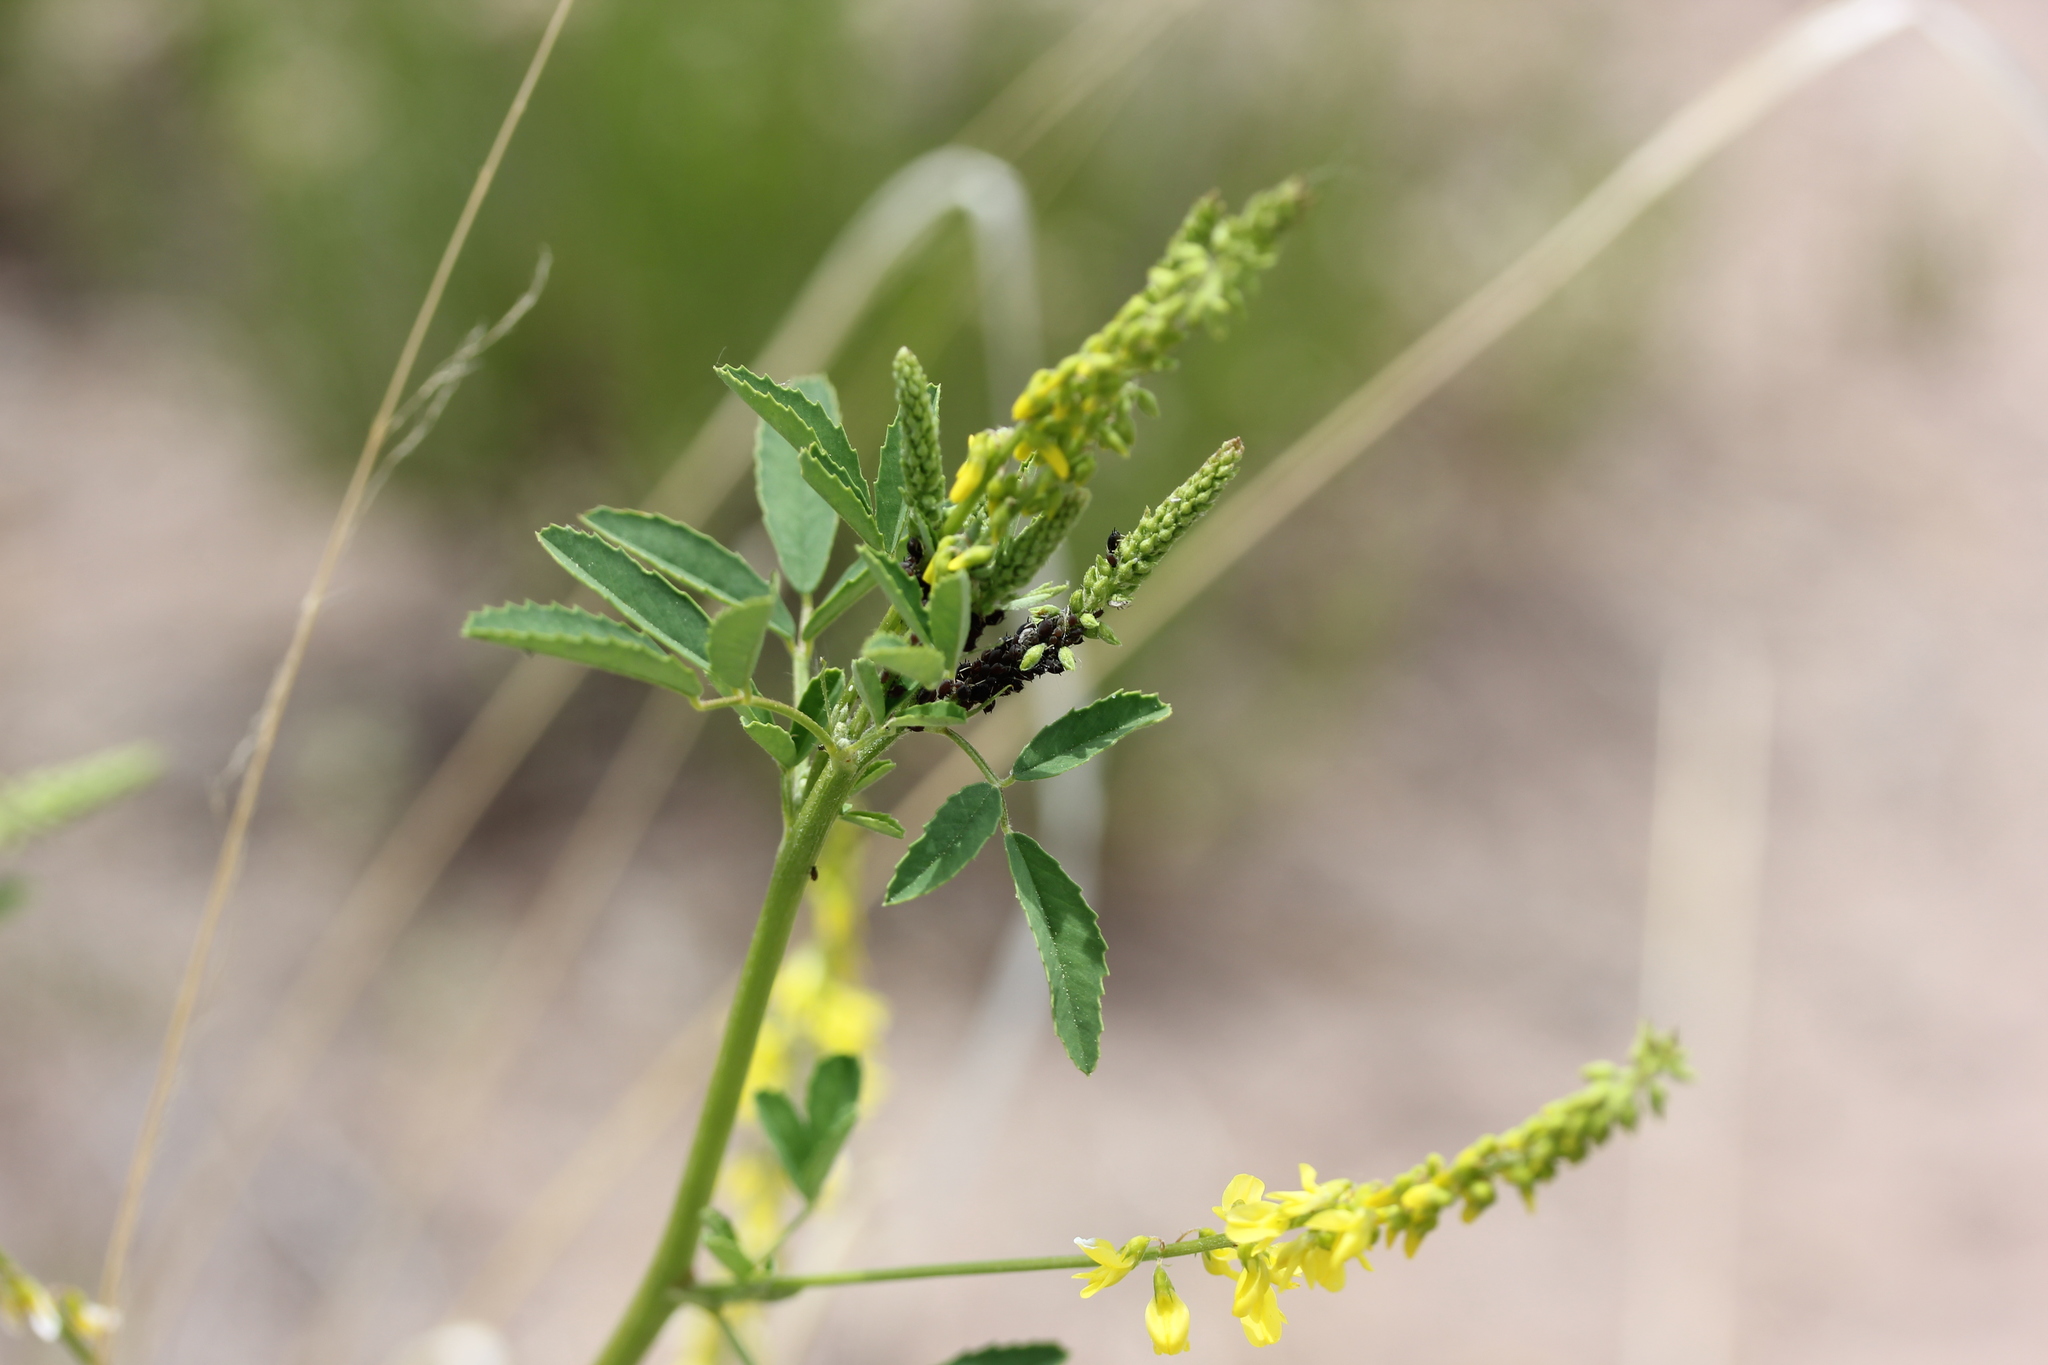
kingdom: Plantae
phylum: Tracheophyta
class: Magnoliopsida
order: Fabales
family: Fabaceae
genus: Melilotus
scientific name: Melilotus officinalis
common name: Sweetclover
